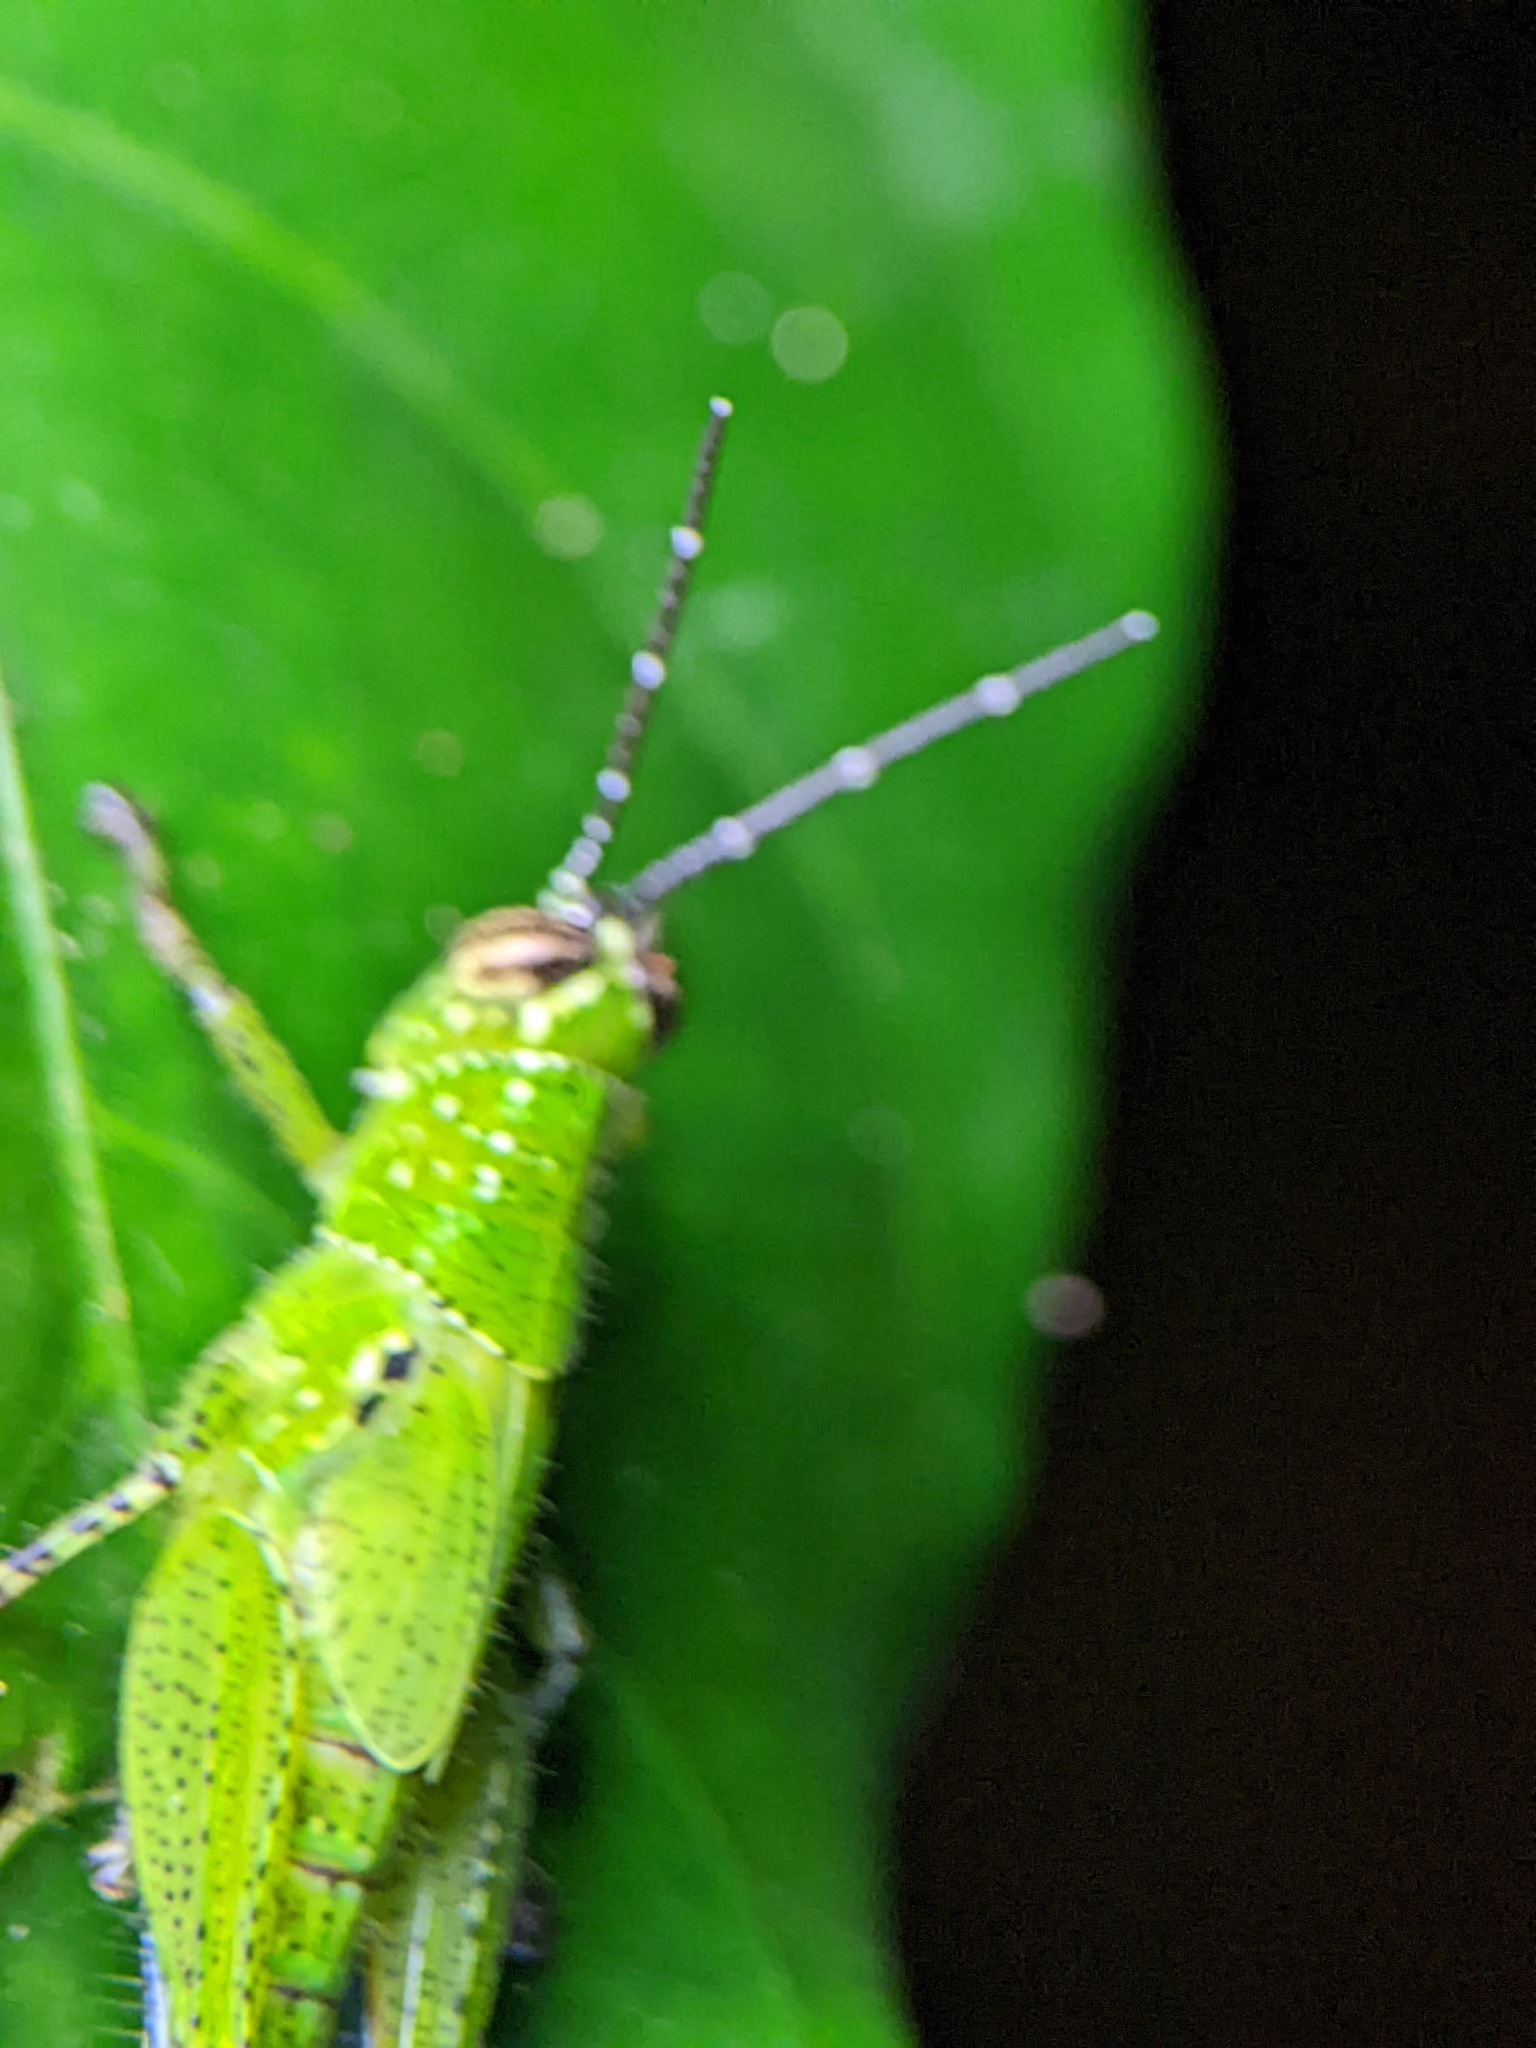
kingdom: Animalia
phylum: Arthropoda
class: Insecta
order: Orthoptera
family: Acrididae
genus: Xenocatantops
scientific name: Xenocatantops humile
